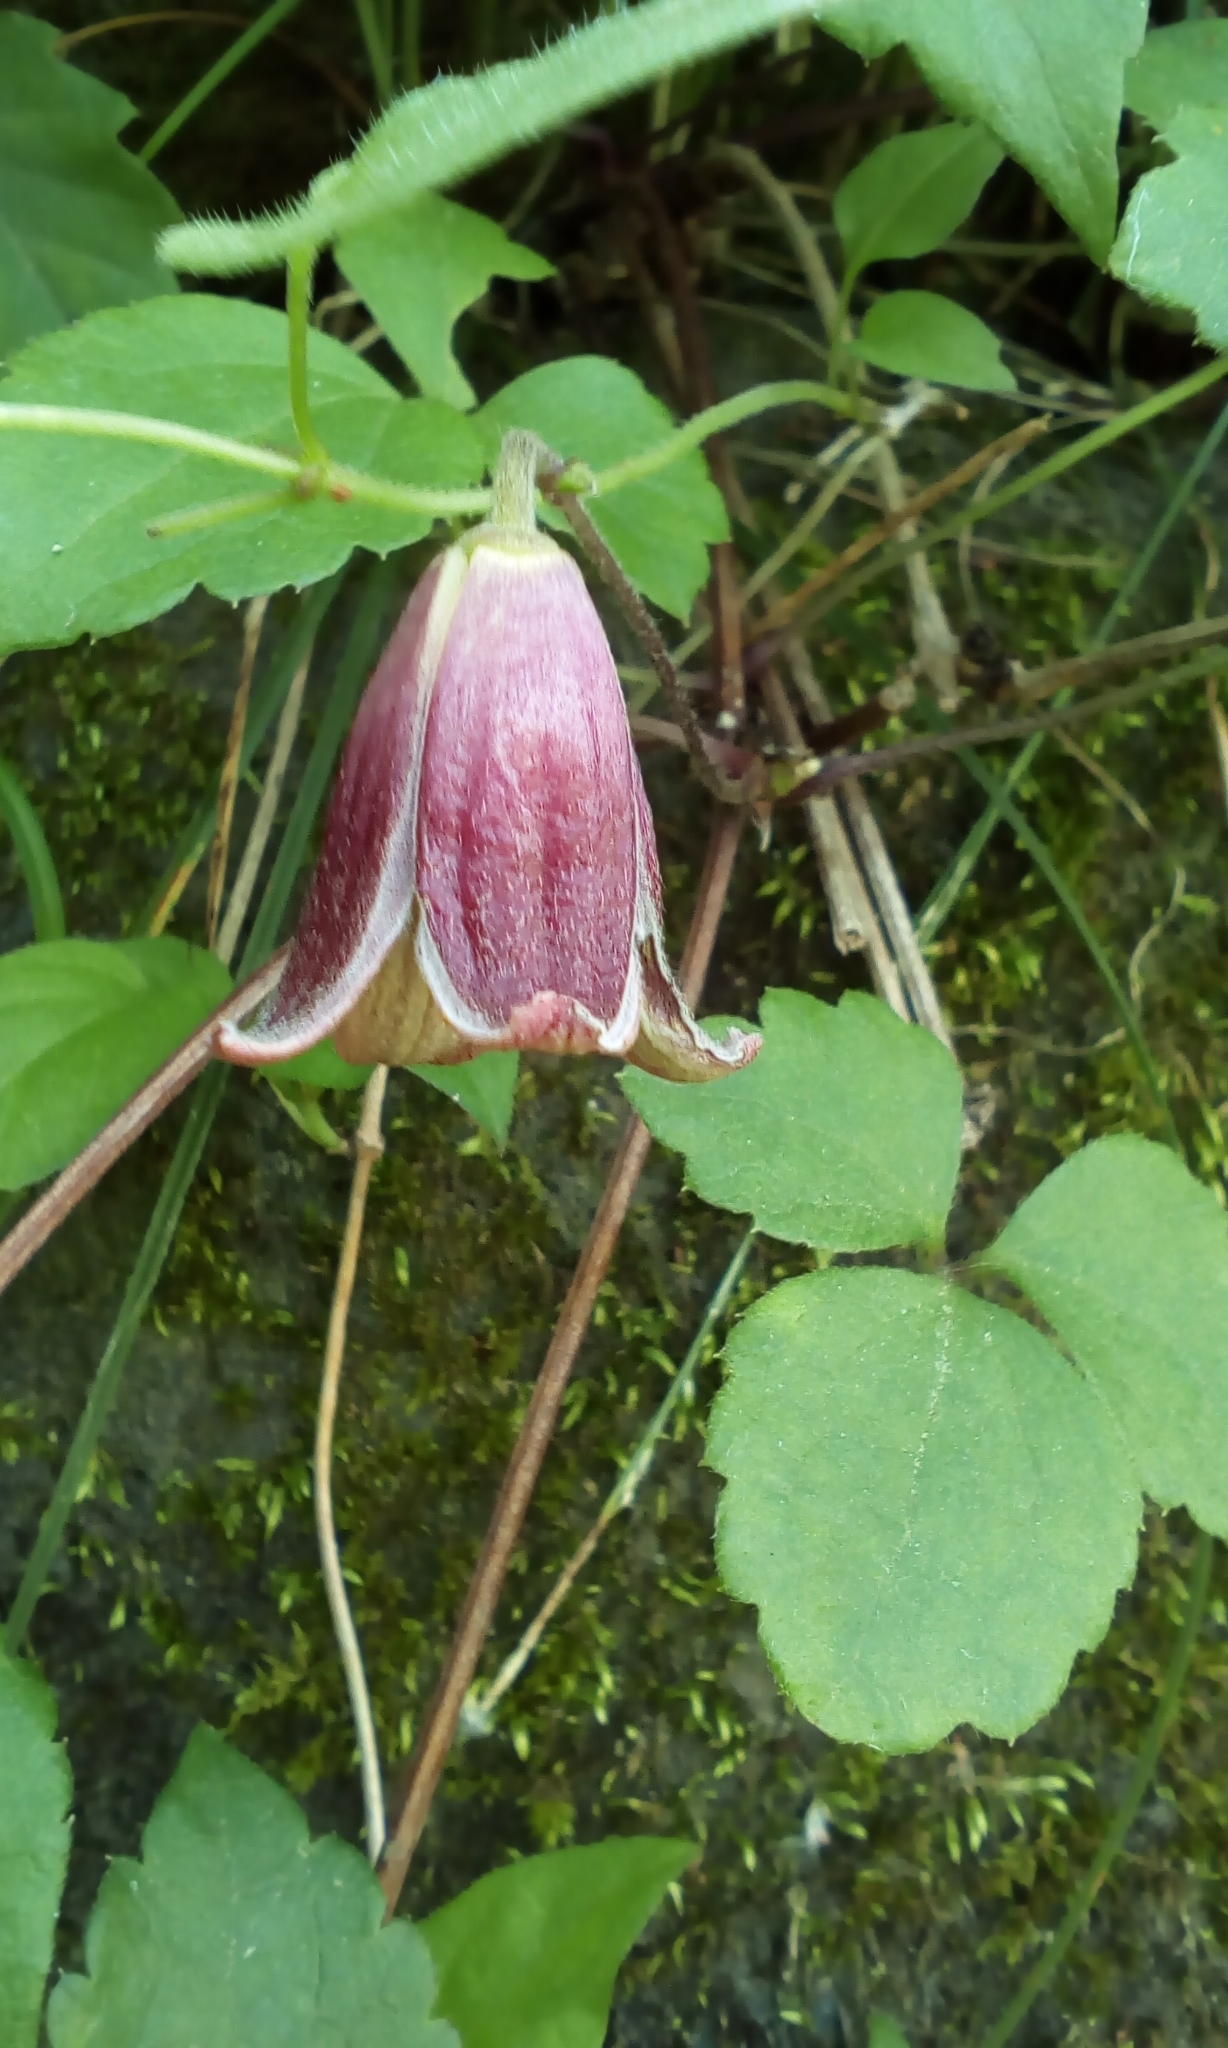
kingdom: Plantae
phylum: Tracheophyta
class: Magnoliopsida
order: Ranunculales
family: Ranunculaceae
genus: Clematis
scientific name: Clematis japonica
